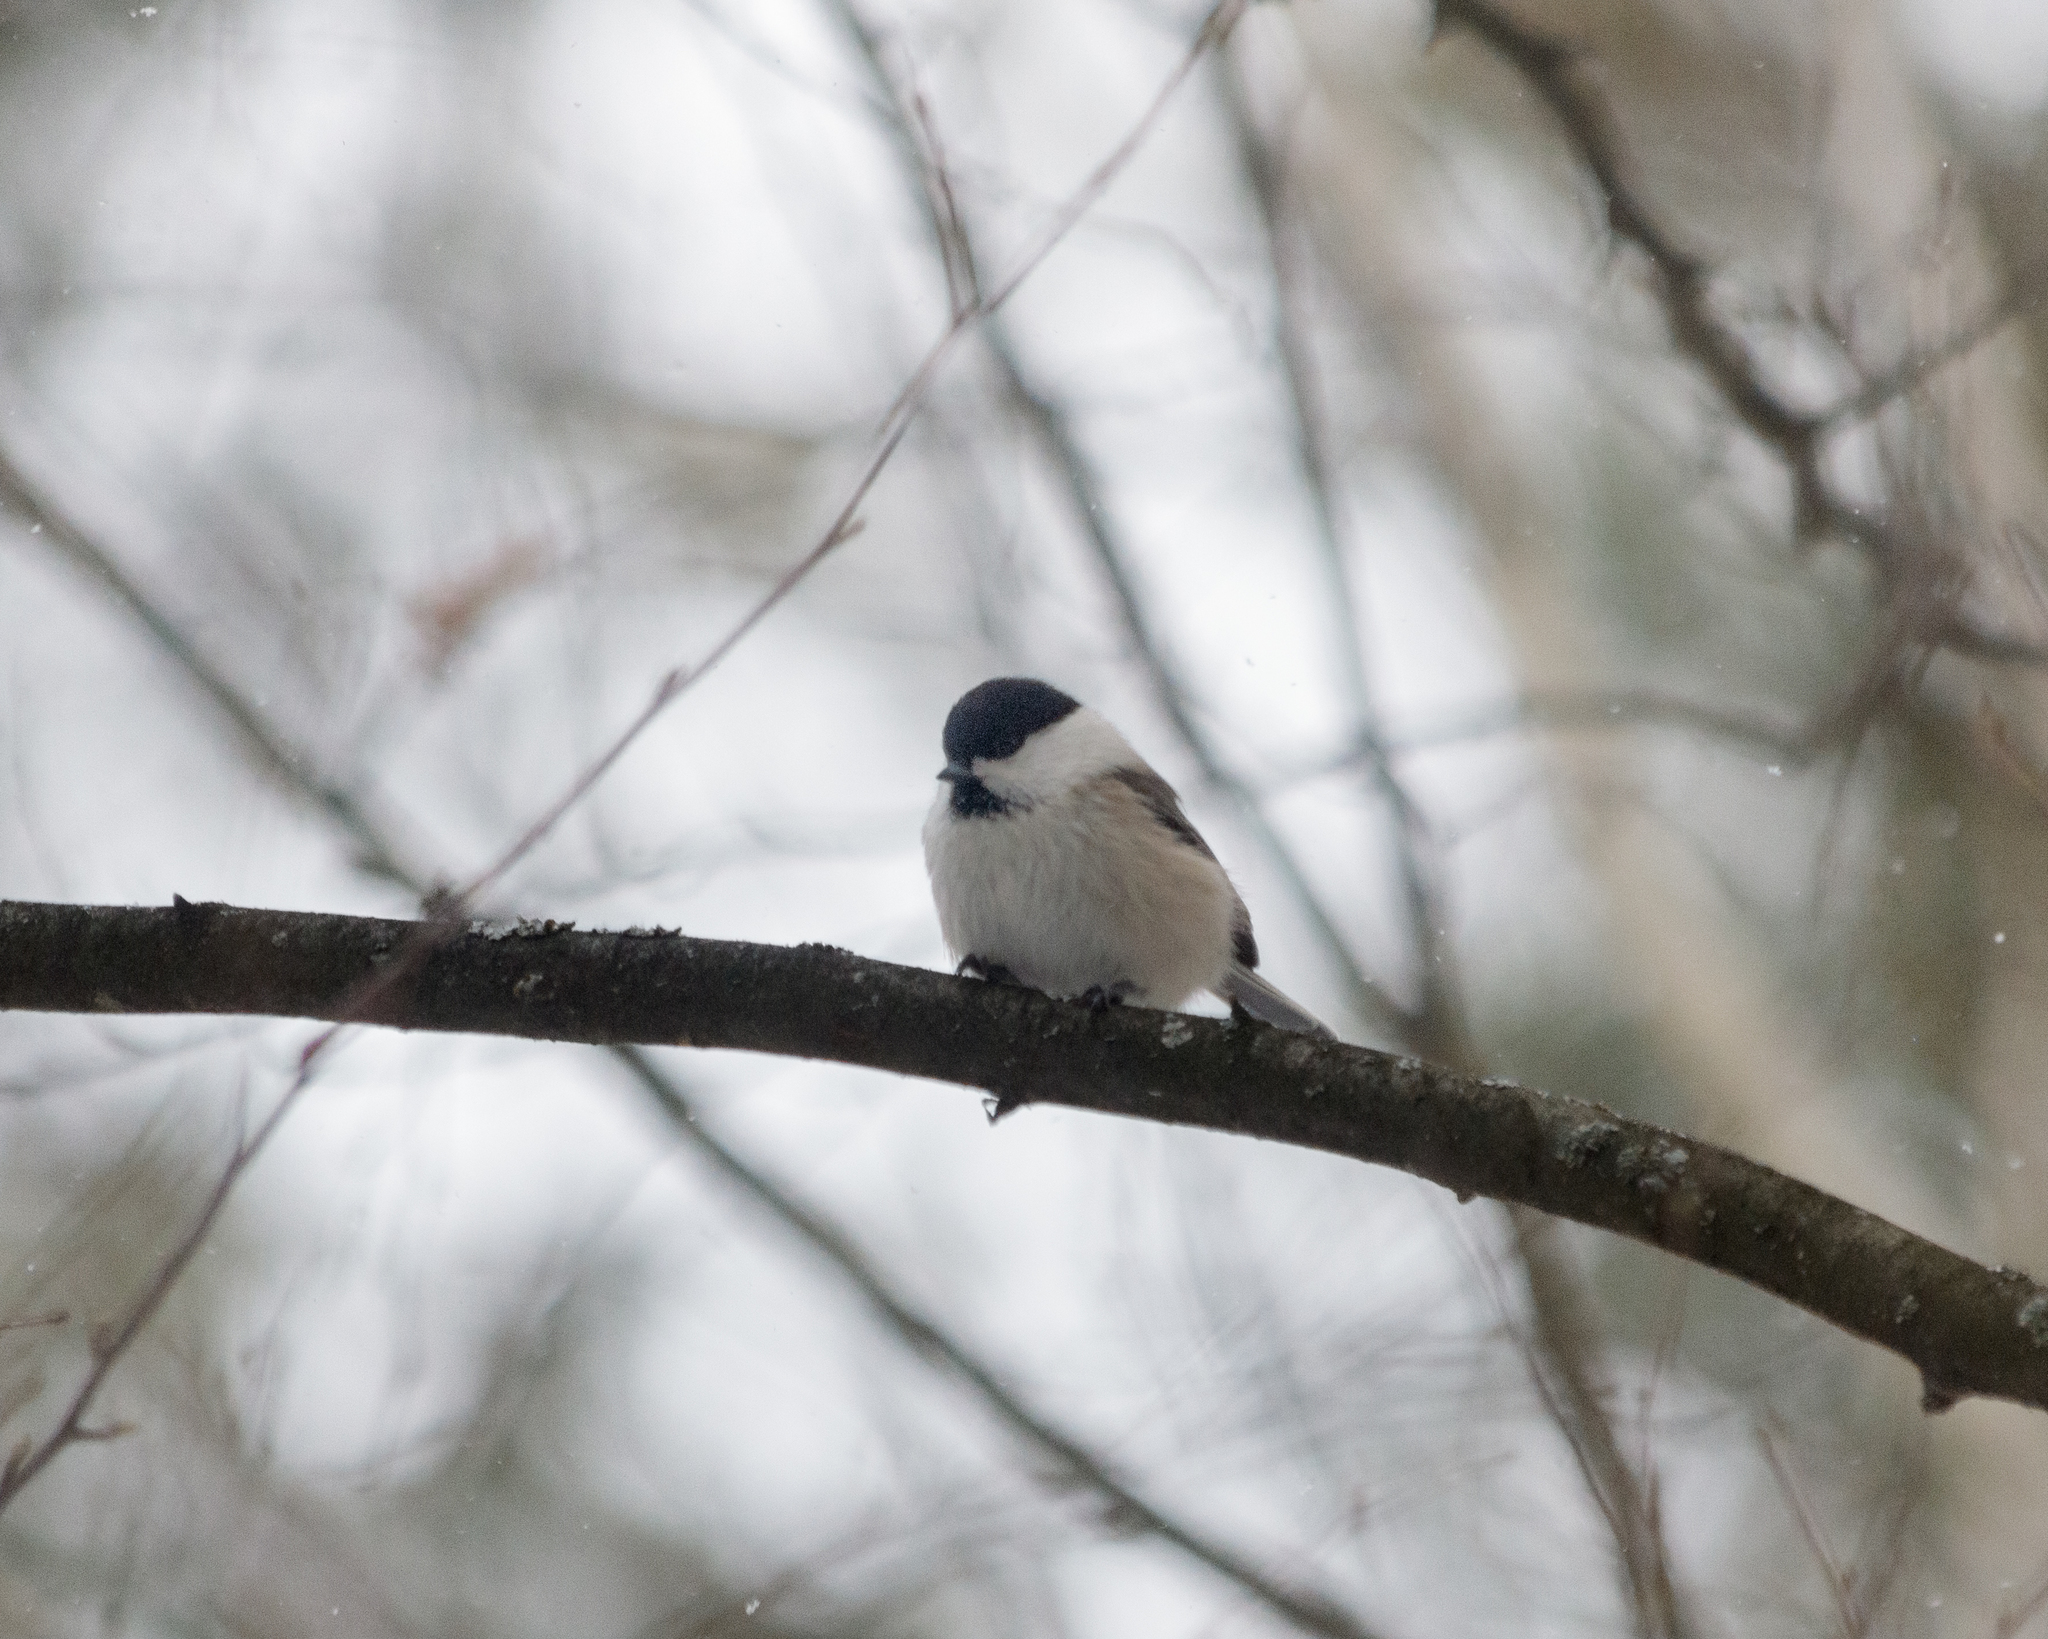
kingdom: Animalia
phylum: Chordata
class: Aves
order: Passeriformes
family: Paridae
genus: Poecile
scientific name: Poecile montanus
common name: Willow tit
